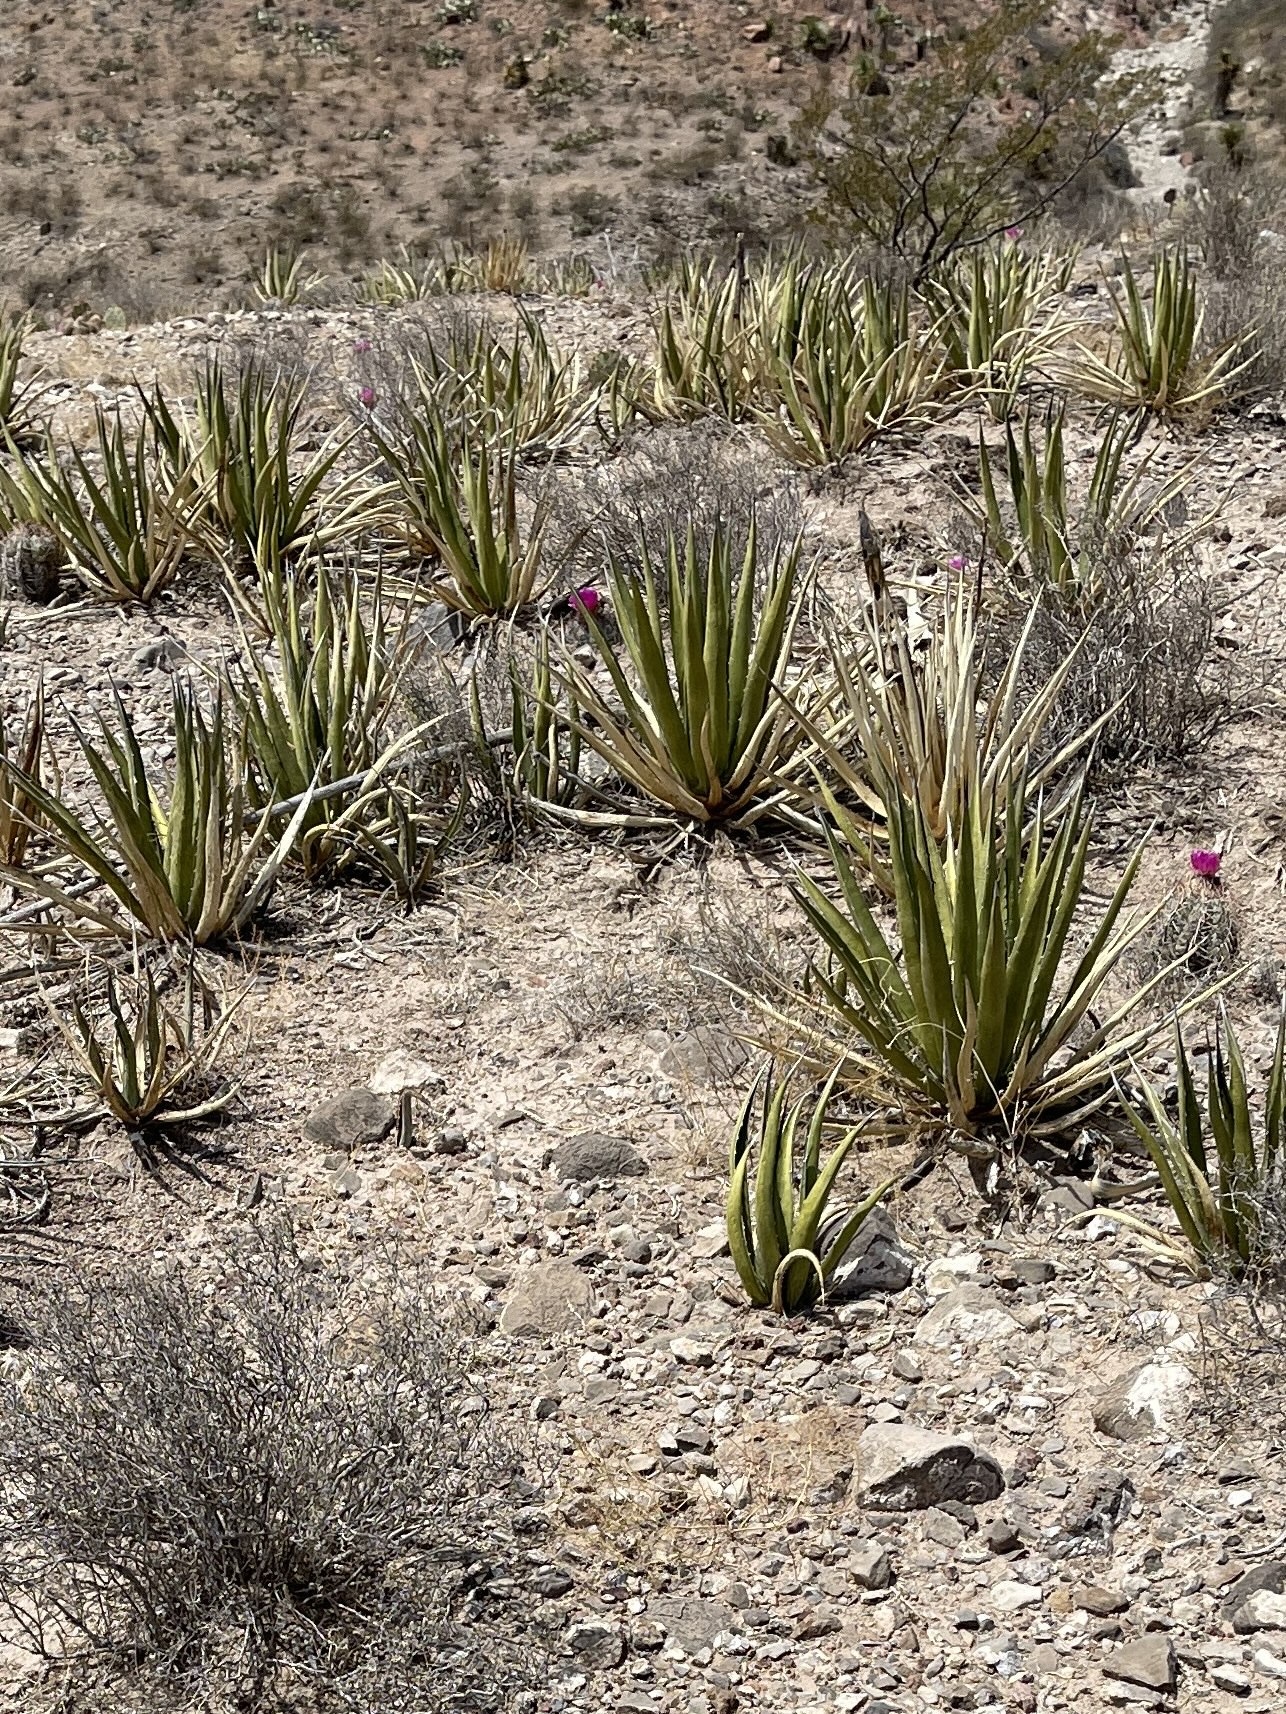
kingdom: Plantae
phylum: Tracheophyta
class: Liliopsida
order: Asparagales
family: Asparagaceae
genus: Agave
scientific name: Agave lechuguilla
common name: Lecheguilla agave
